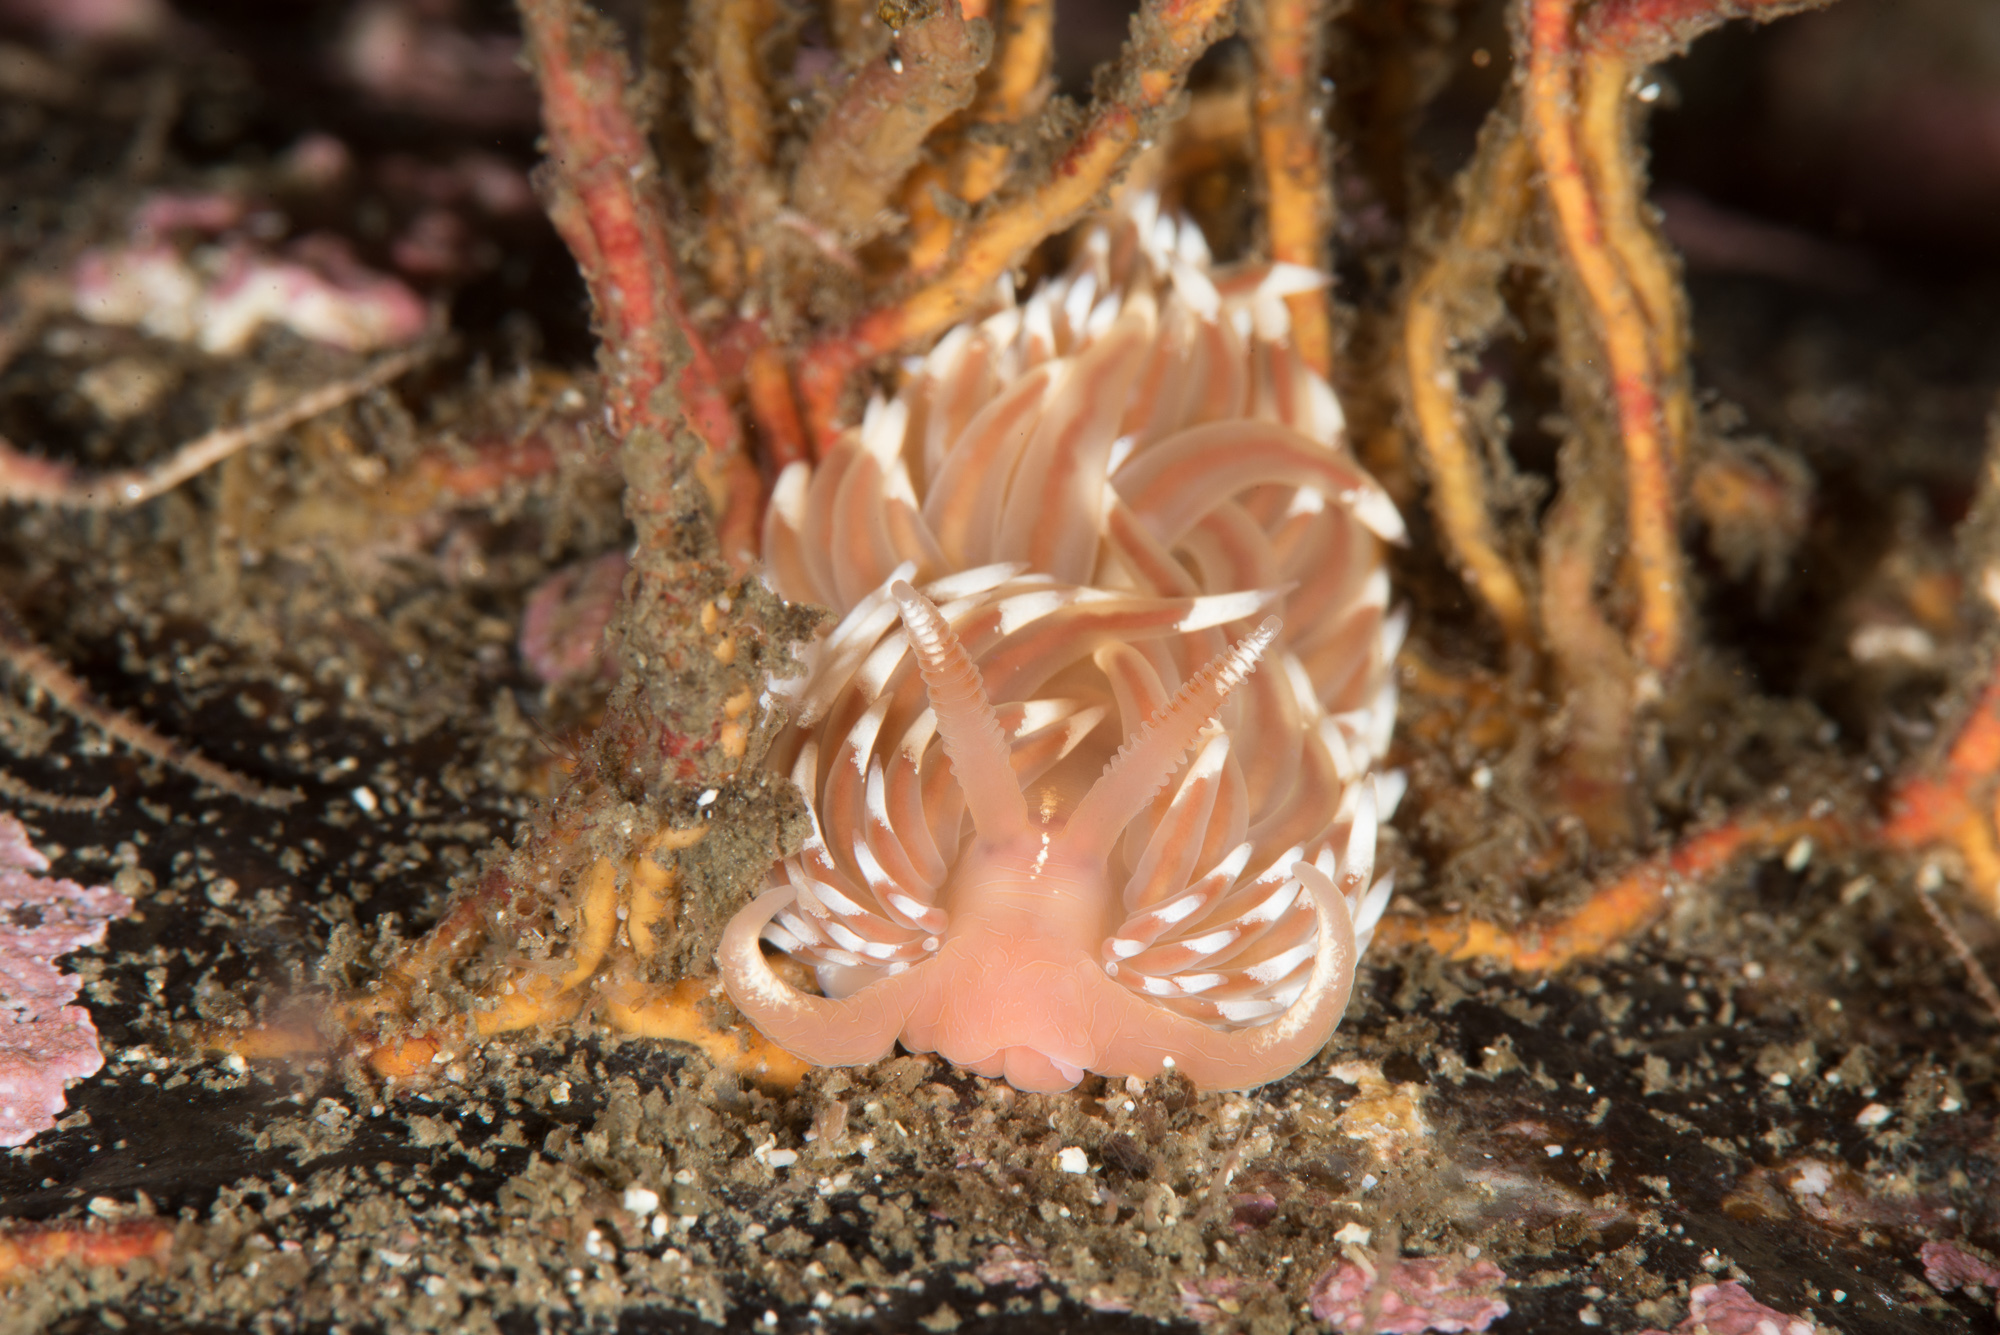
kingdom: Animalia
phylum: Mollusca
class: Gastropoda
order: Nudibranchia
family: Facelinidae
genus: Facelina
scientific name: Facelina bostoniensis
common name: Boston facelina
